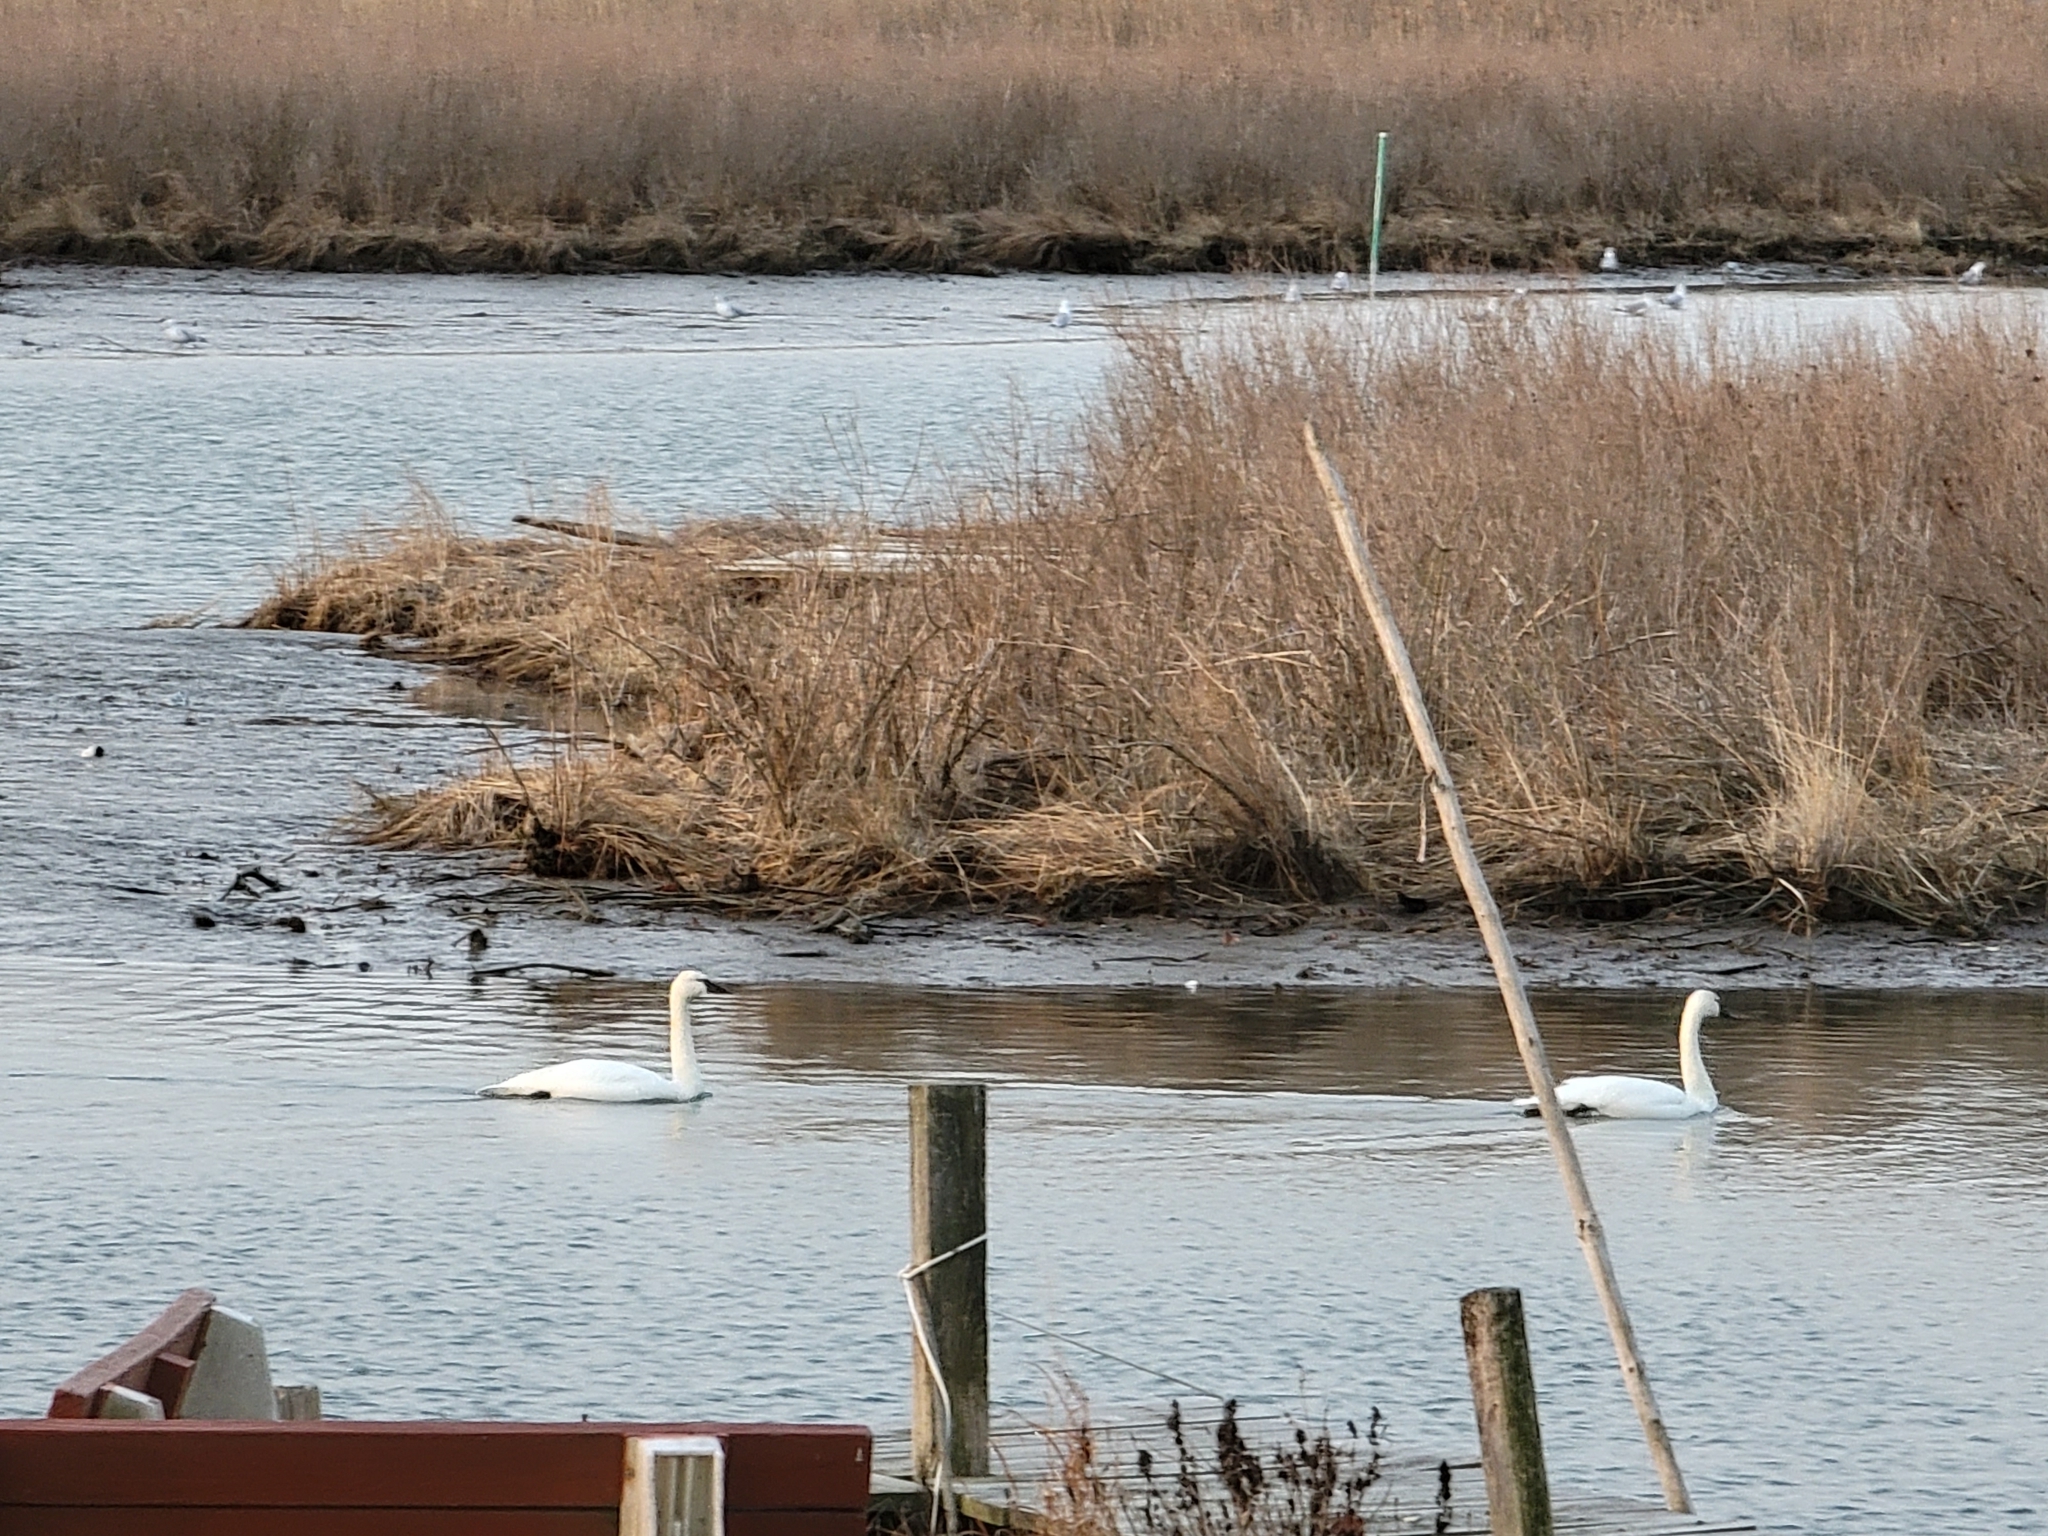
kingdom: Animalia
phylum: Chordata
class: Aves
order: Anseriformes
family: Anatidae
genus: Cygnus
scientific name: Cygnus columbianus
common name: Tundra swan
